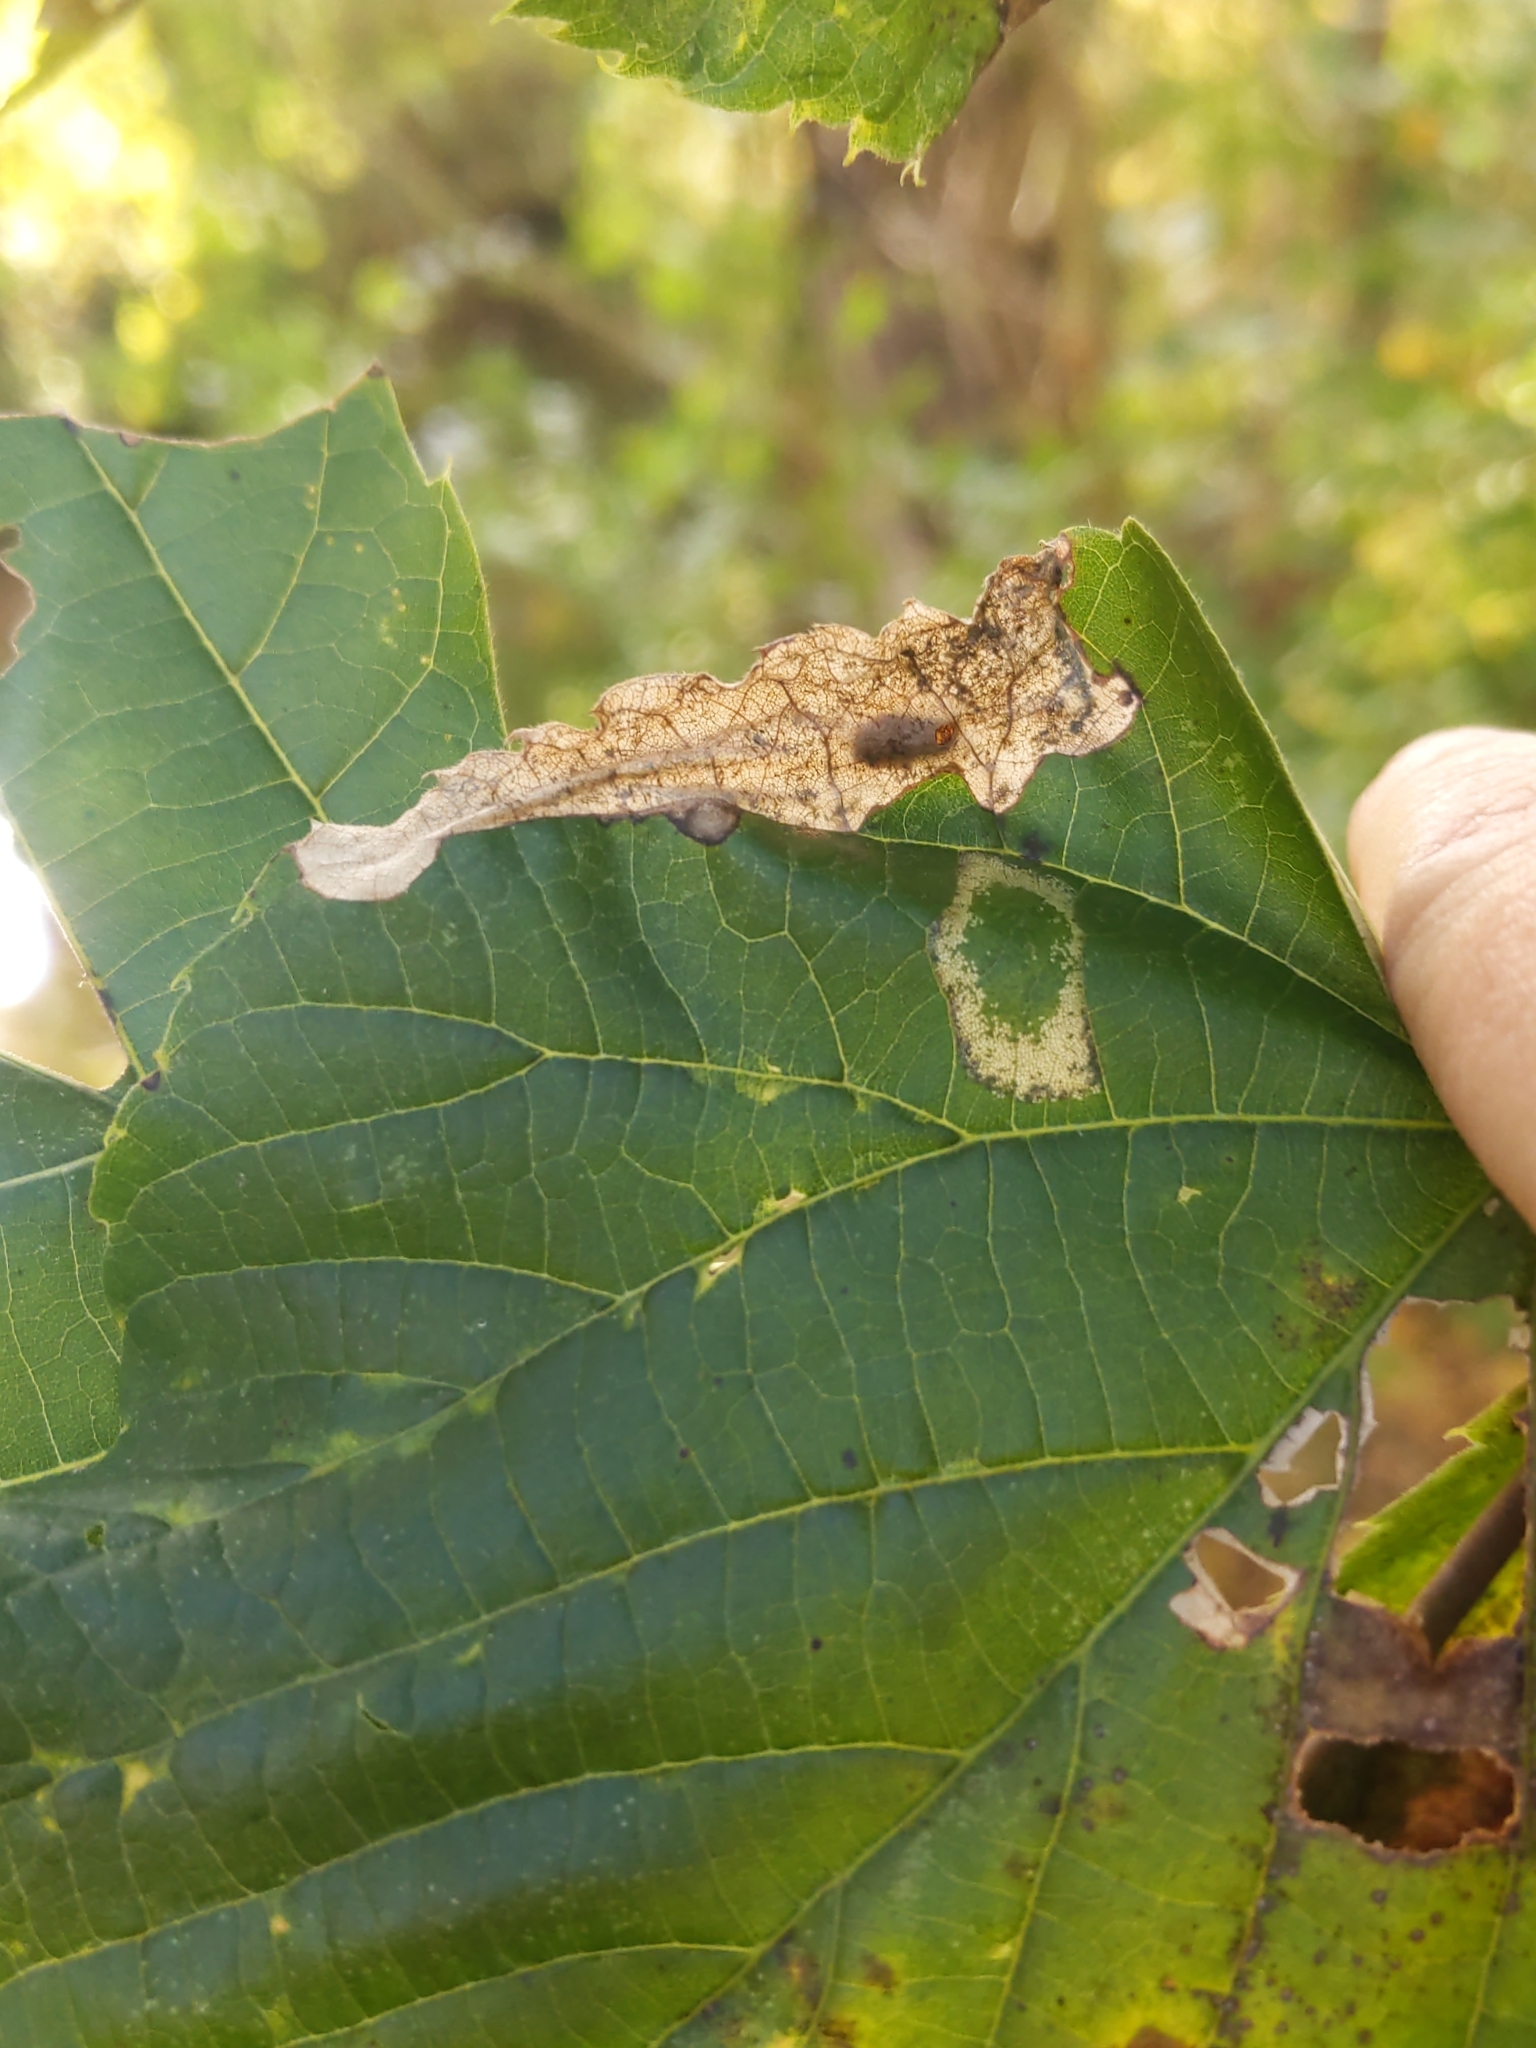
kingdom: Animalia
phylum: Arthropoda
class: Insecta
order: Coleoptera
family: Chrysomelidae
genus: Baliosus
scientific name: Baliosus nervosus
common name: Basswood leaf miner
